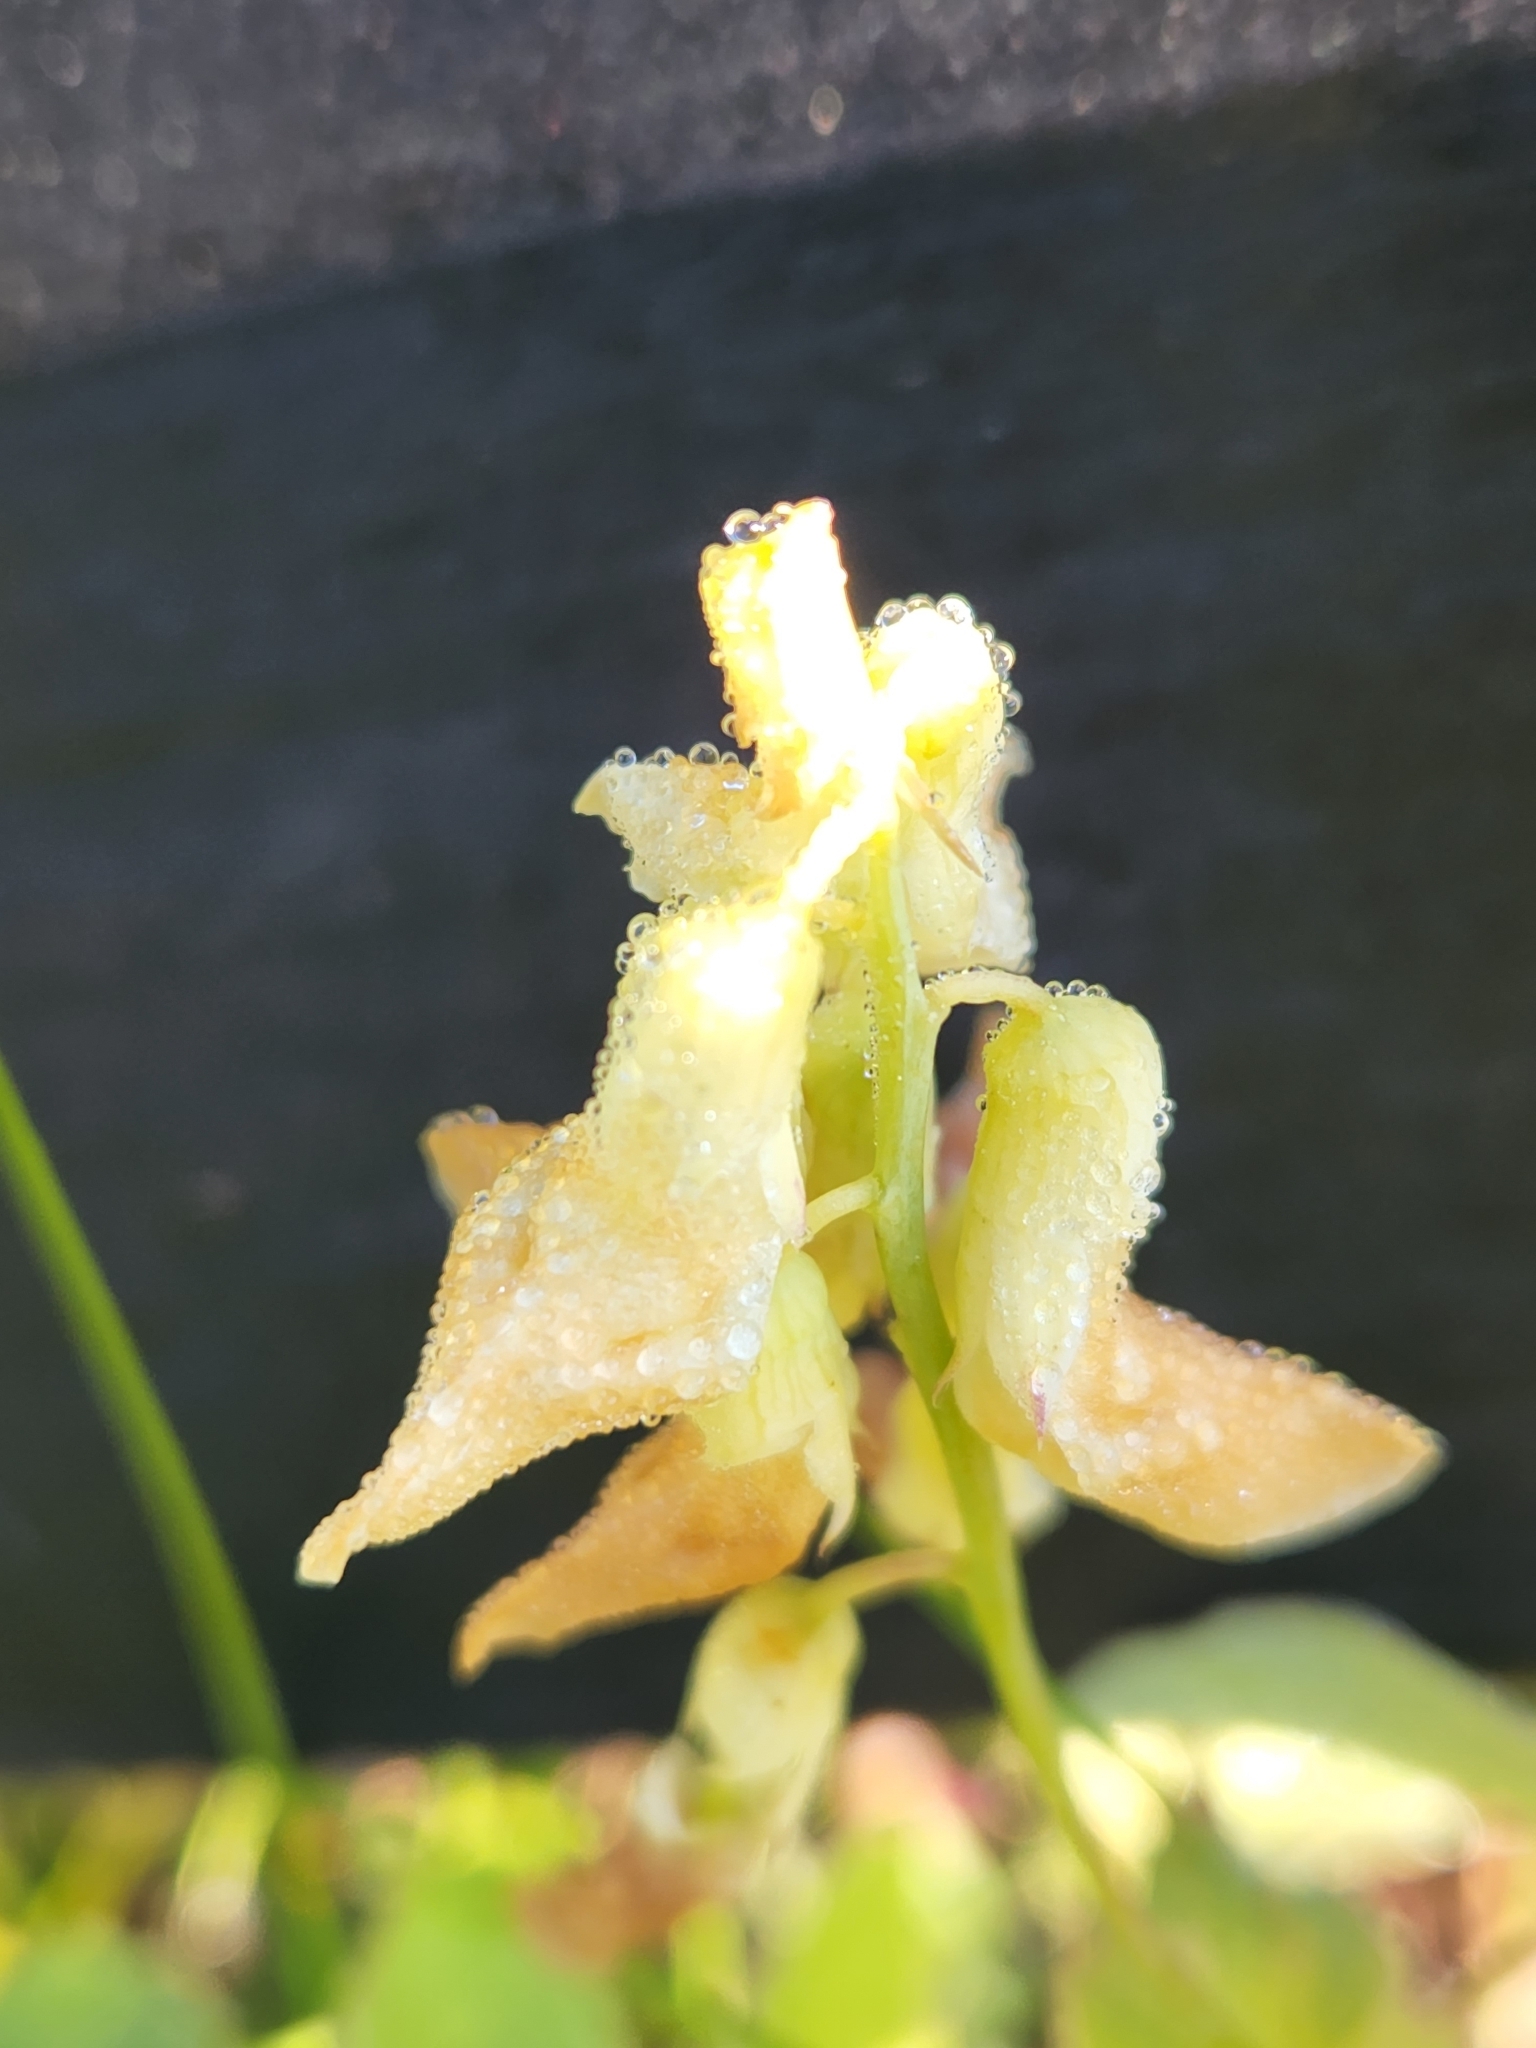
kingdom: Plantae
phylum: Tracheophyta
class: Magnoliopsida
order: Fabales
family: Fabaceae
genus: Lathyrus
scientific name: Lathyrus ochroleucus
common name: Pale vetchling
